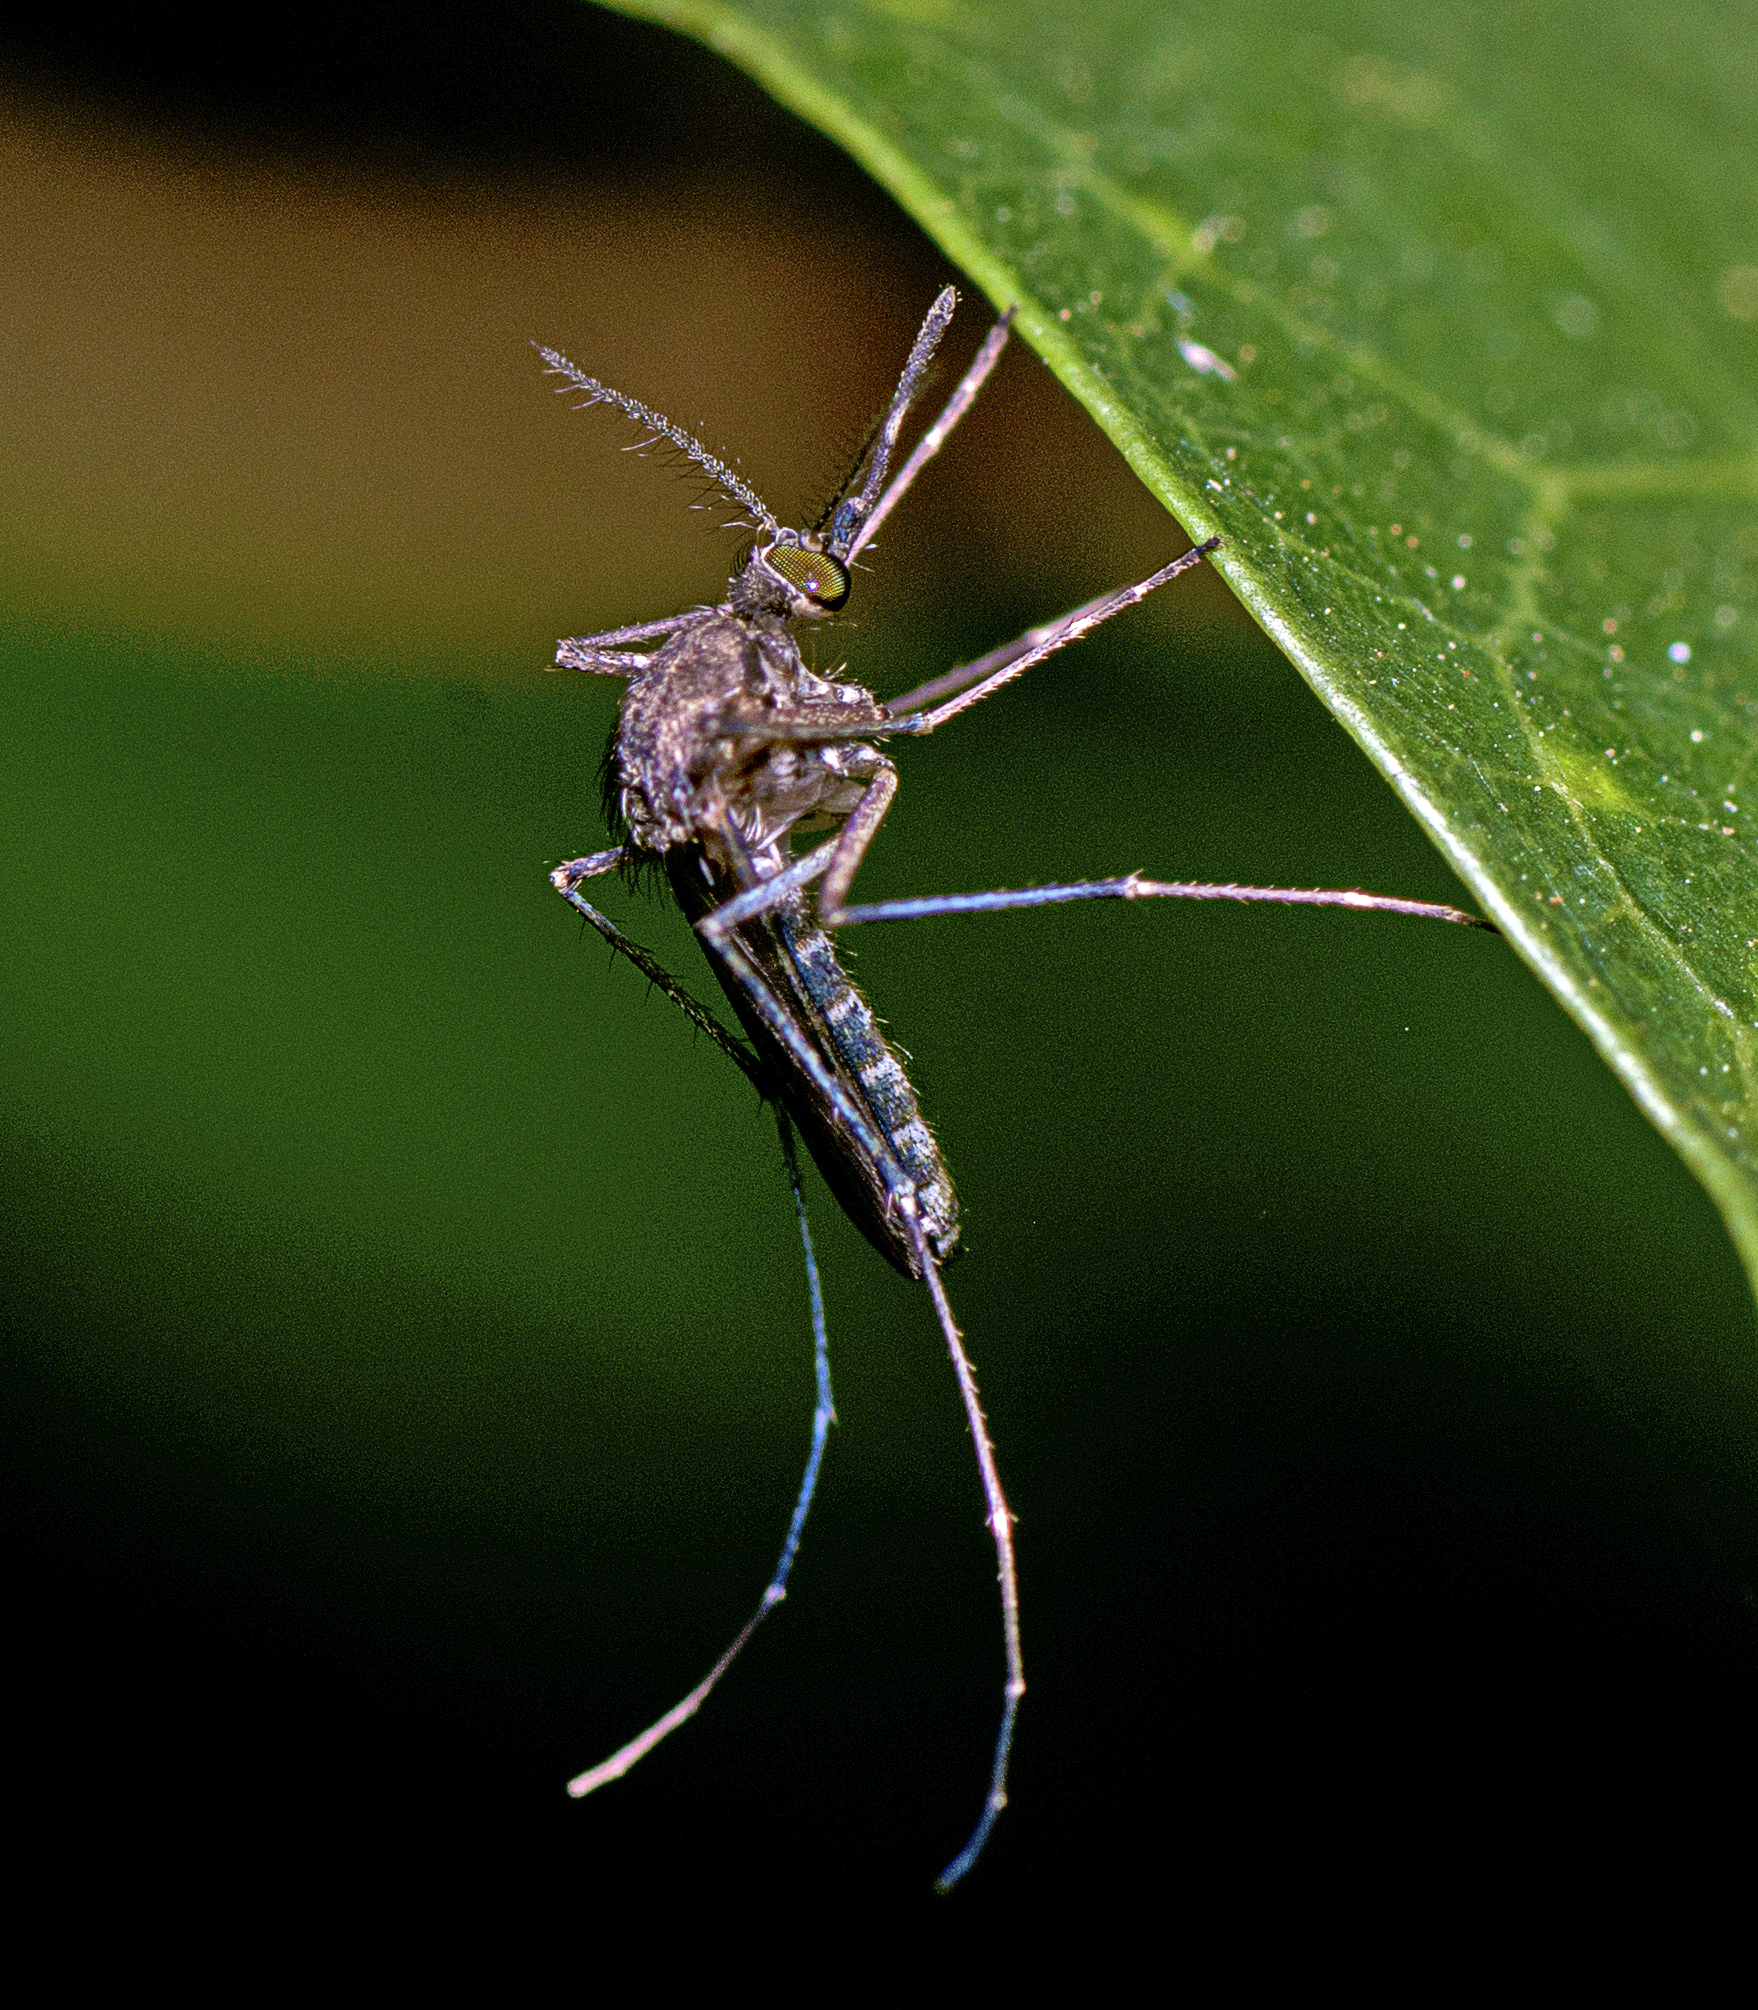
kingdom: Animalia
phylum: Arthropoda
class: Insecta
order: Diptera
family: Culicidae
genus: Culex
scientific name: Culex sitiens
